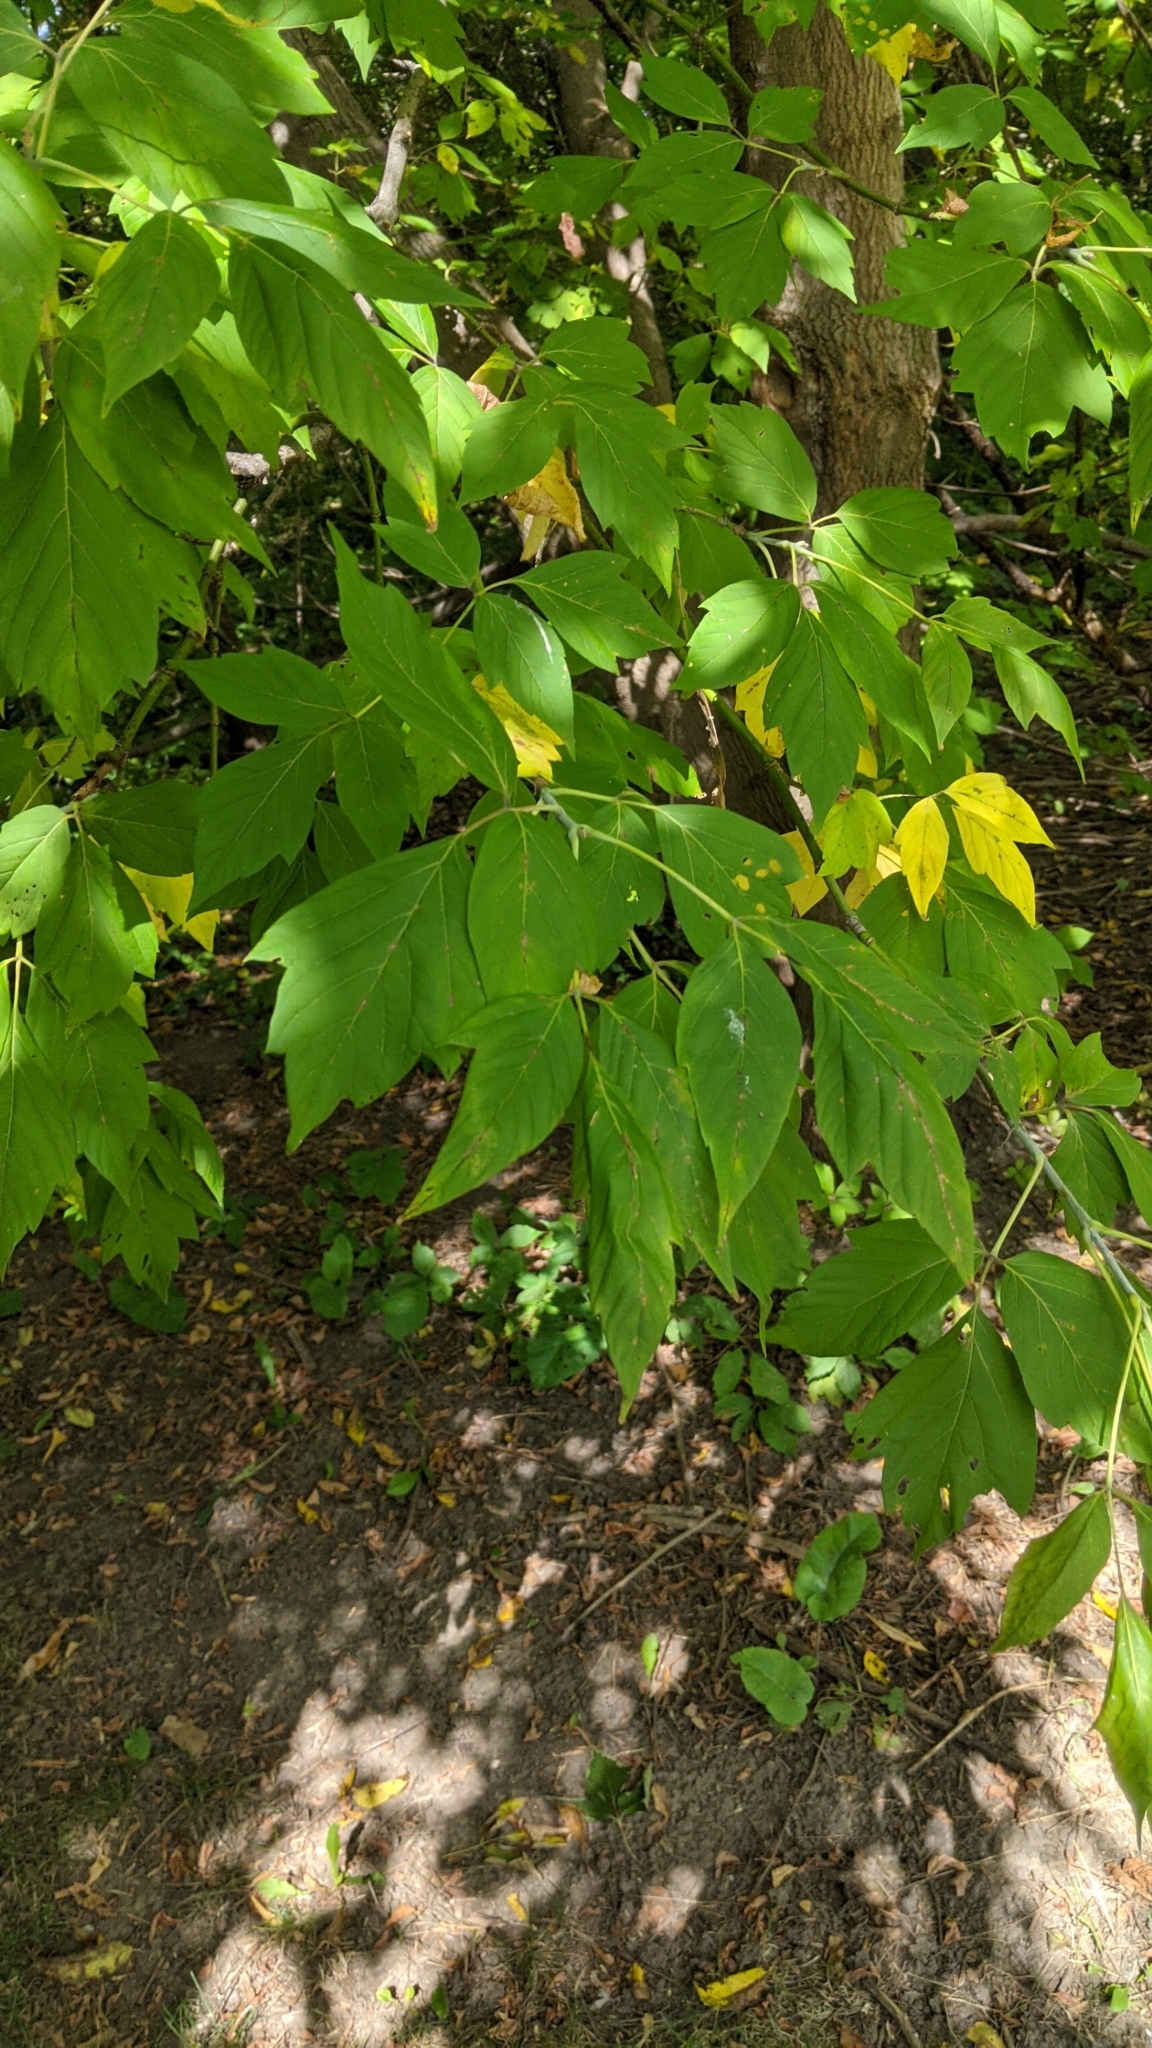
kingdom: Plantae
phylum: Tracheophyta
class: Magnoliopsida
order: Sapindales
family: Sapindaceae
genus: Acer
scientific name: Acer negundo
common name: Ashleaf maple
